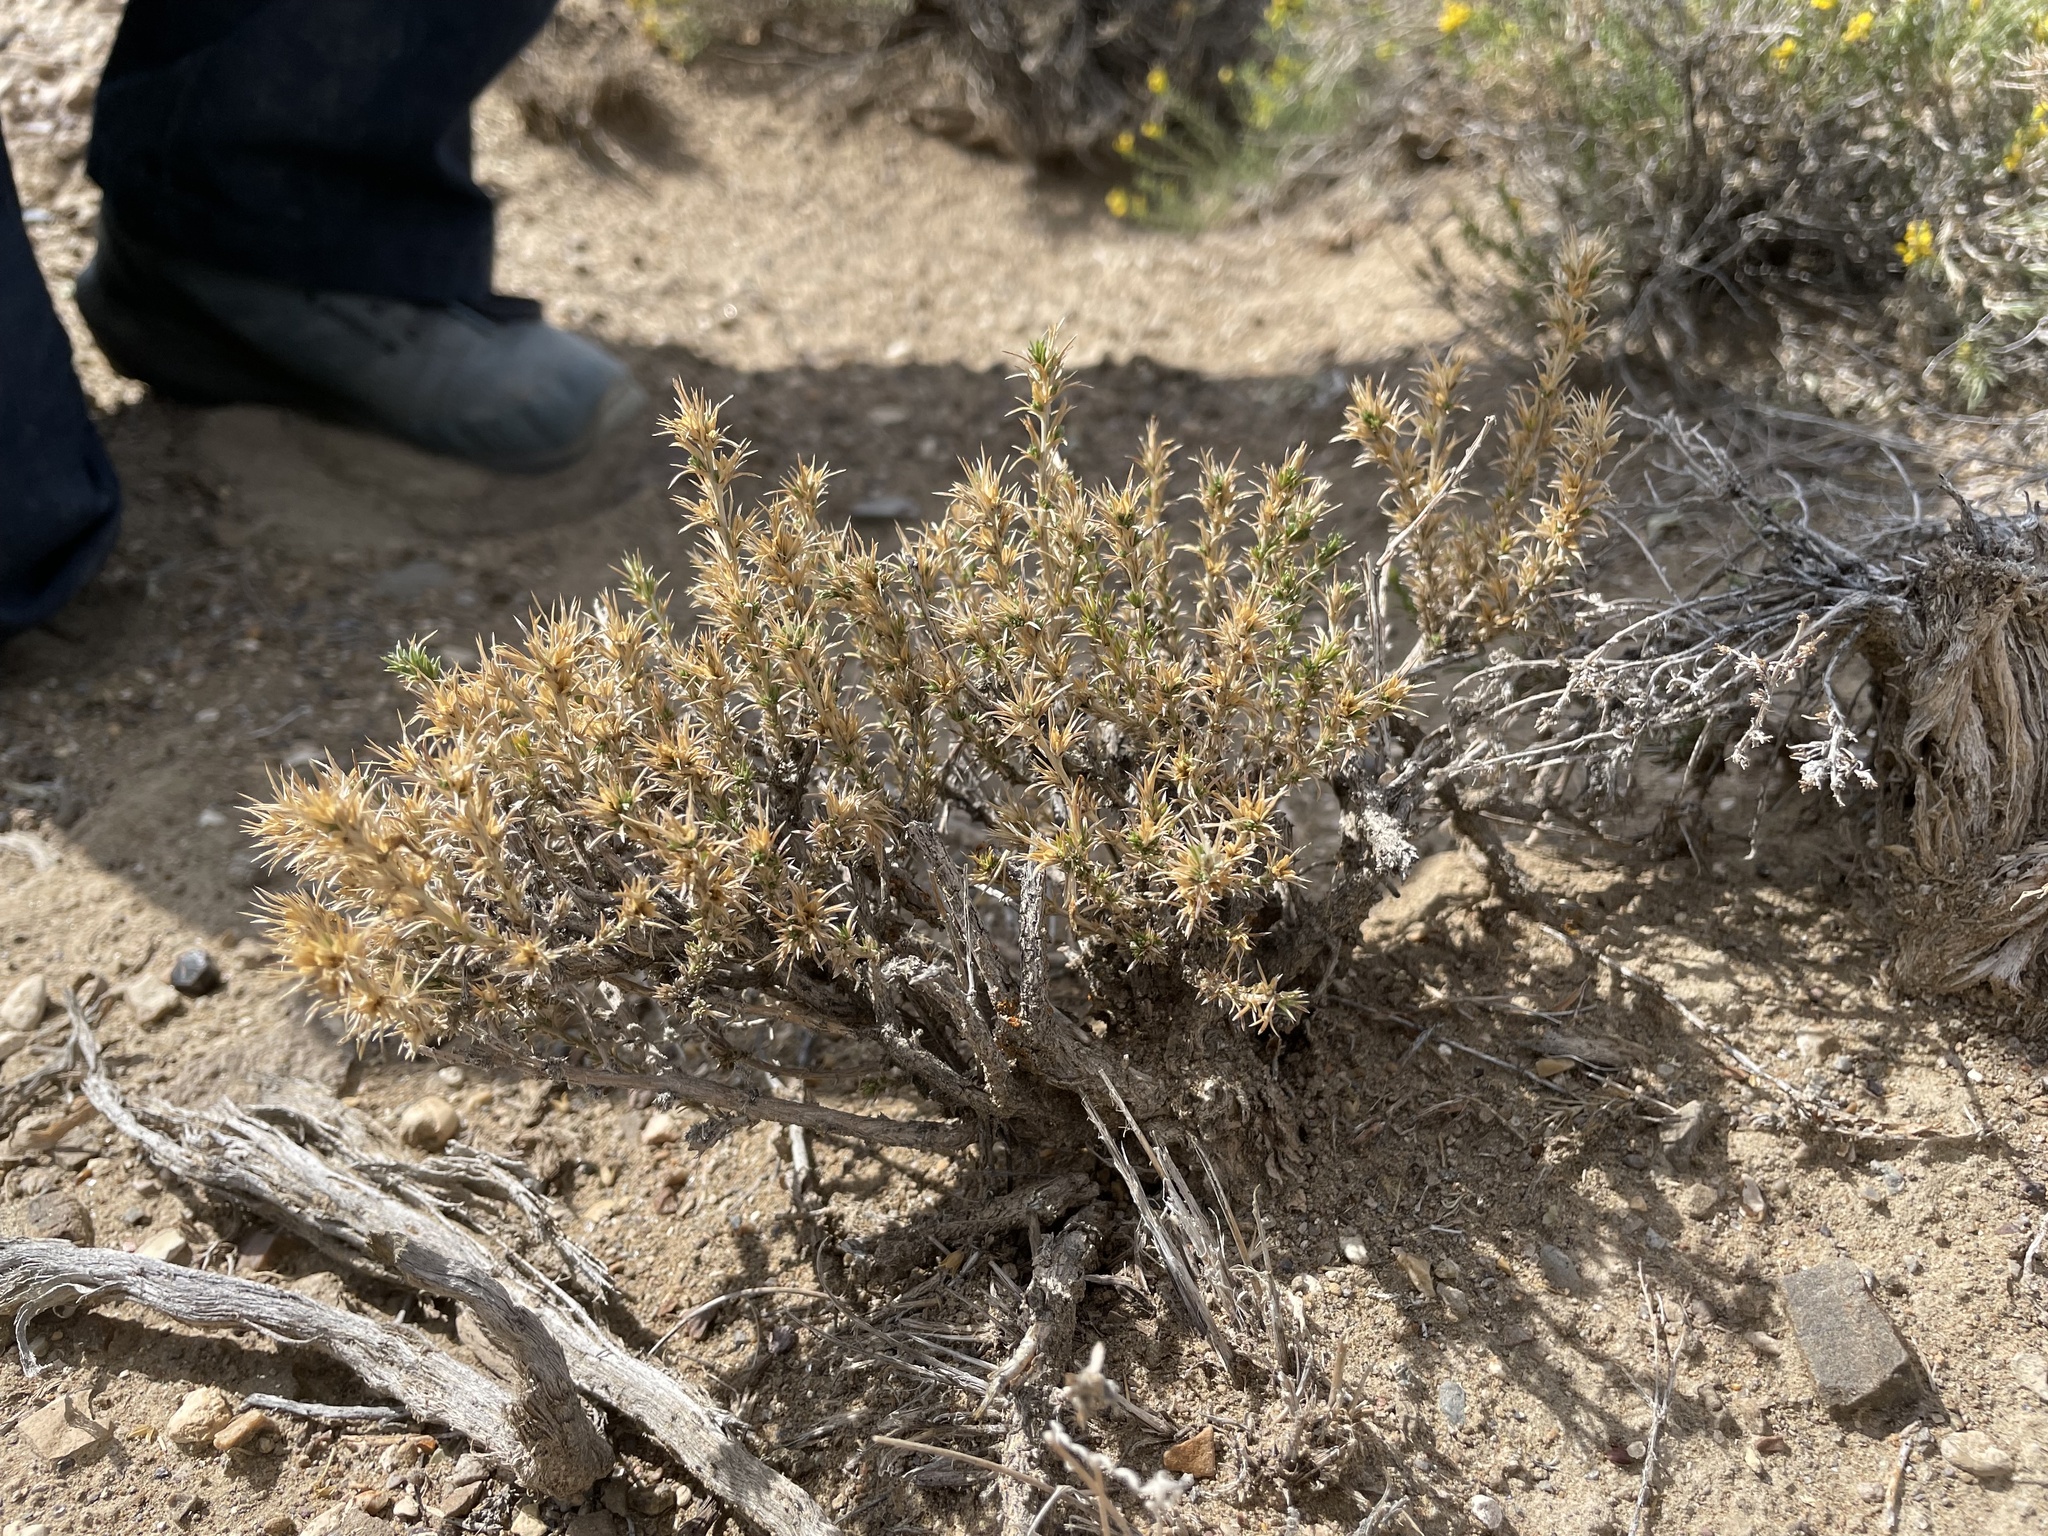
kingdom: Plantae
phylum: Tracheophyta
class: Magnoliopsida
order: Ericales
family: Polemoniaceae
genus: Linanthus
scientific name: Linanthus pungens
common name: Granite prickly phlox
